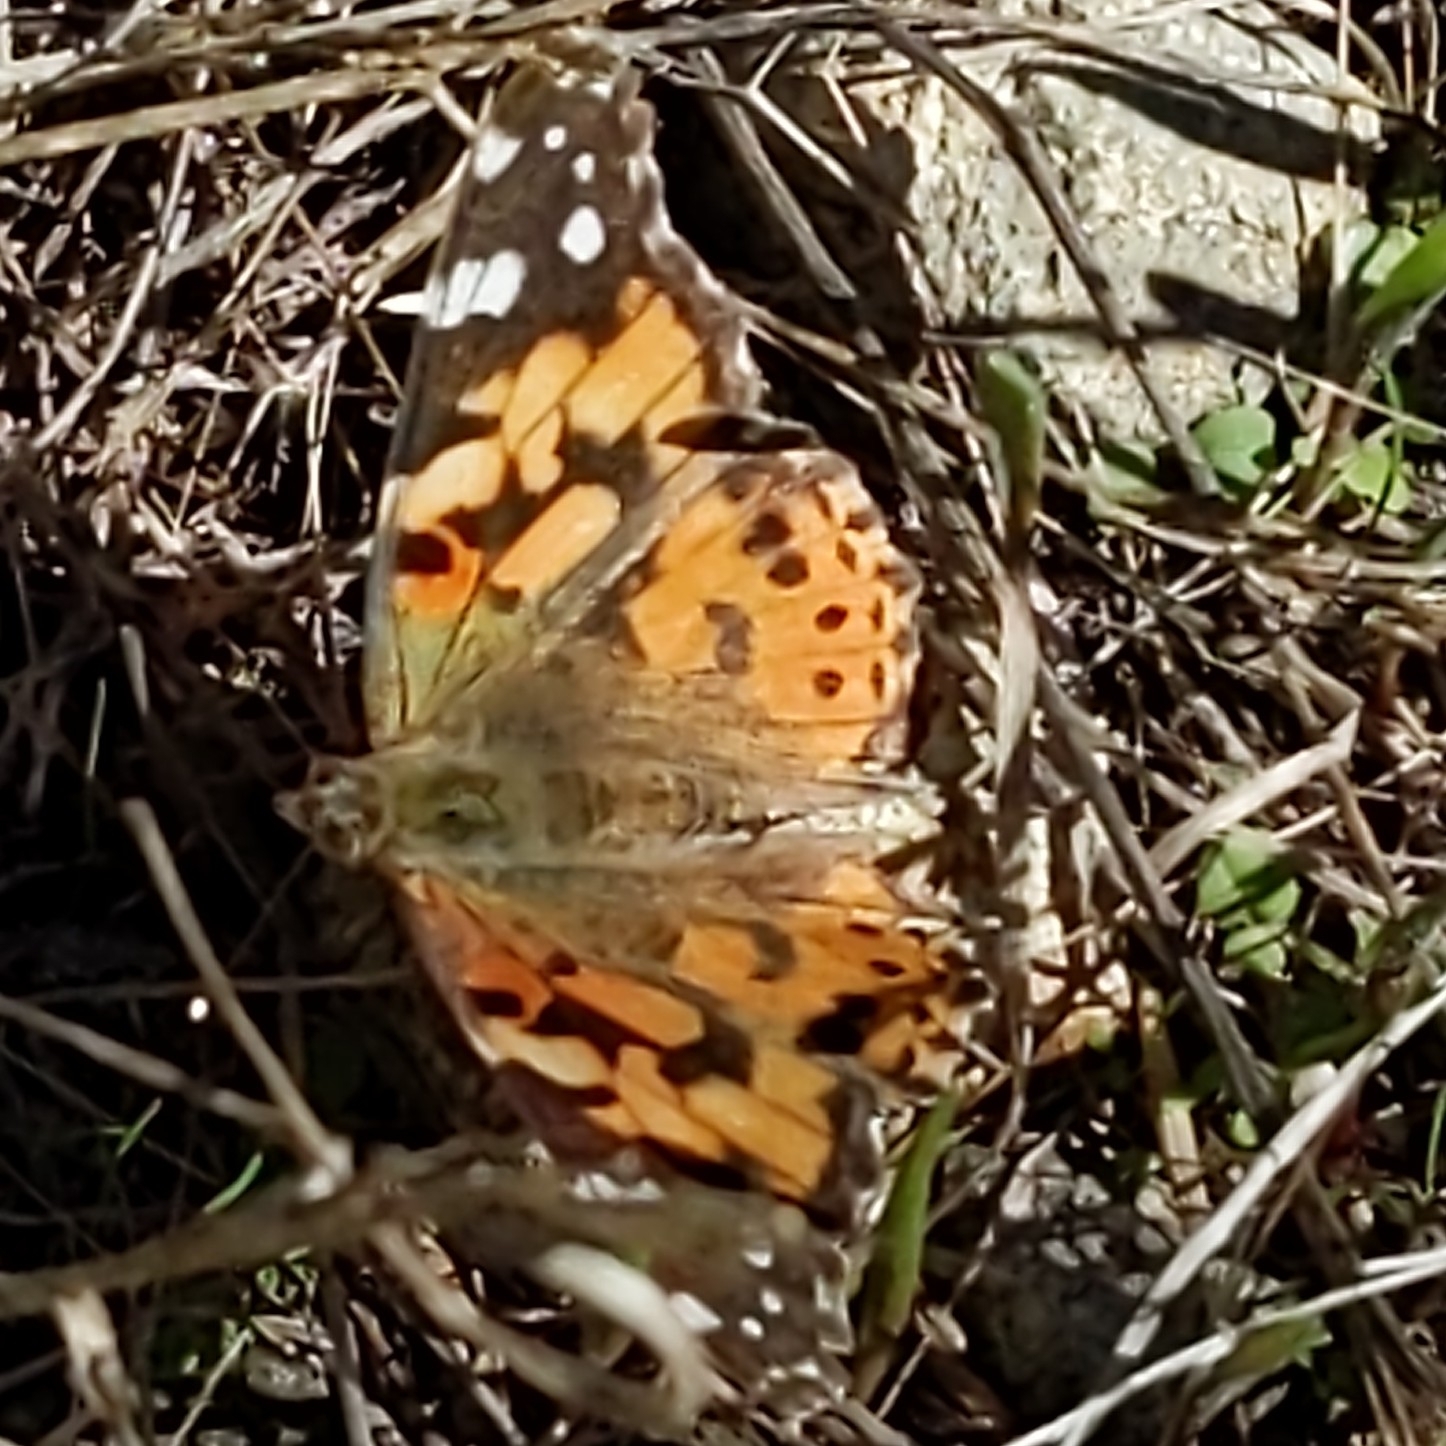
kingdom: Animalia
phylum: Arthropoda
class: Insecta
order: Lepidoptera
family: Nymphalidae
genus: Vanessa
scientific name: Vanessa cardui
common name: Painted lady
